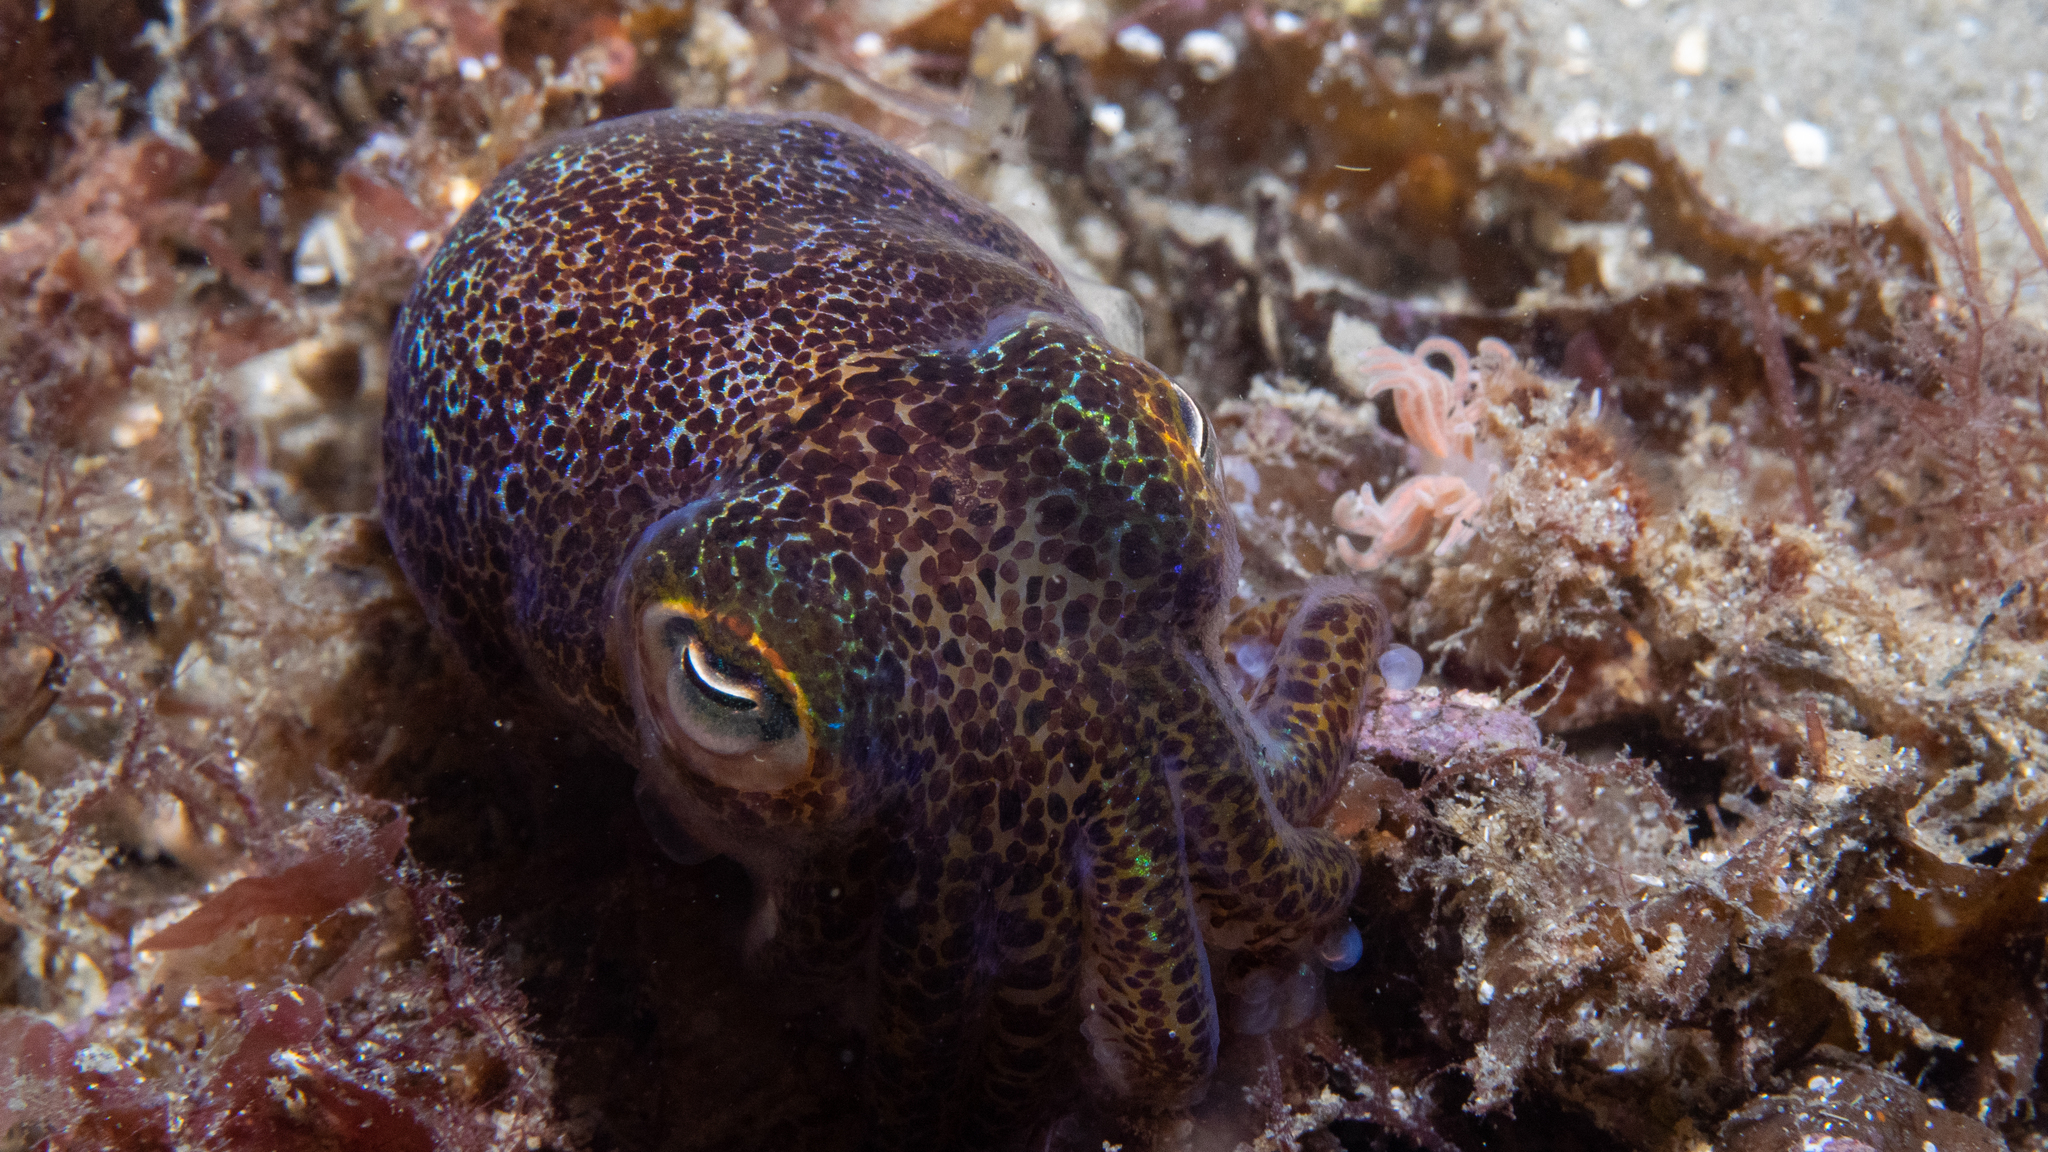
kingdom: Animalia
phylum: Mollusca
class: Cephalopoda
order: Sepiida
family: Sepiolidae
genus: Euprymna
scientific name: Euprymna tasmanica
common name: Southern bobtail squid
